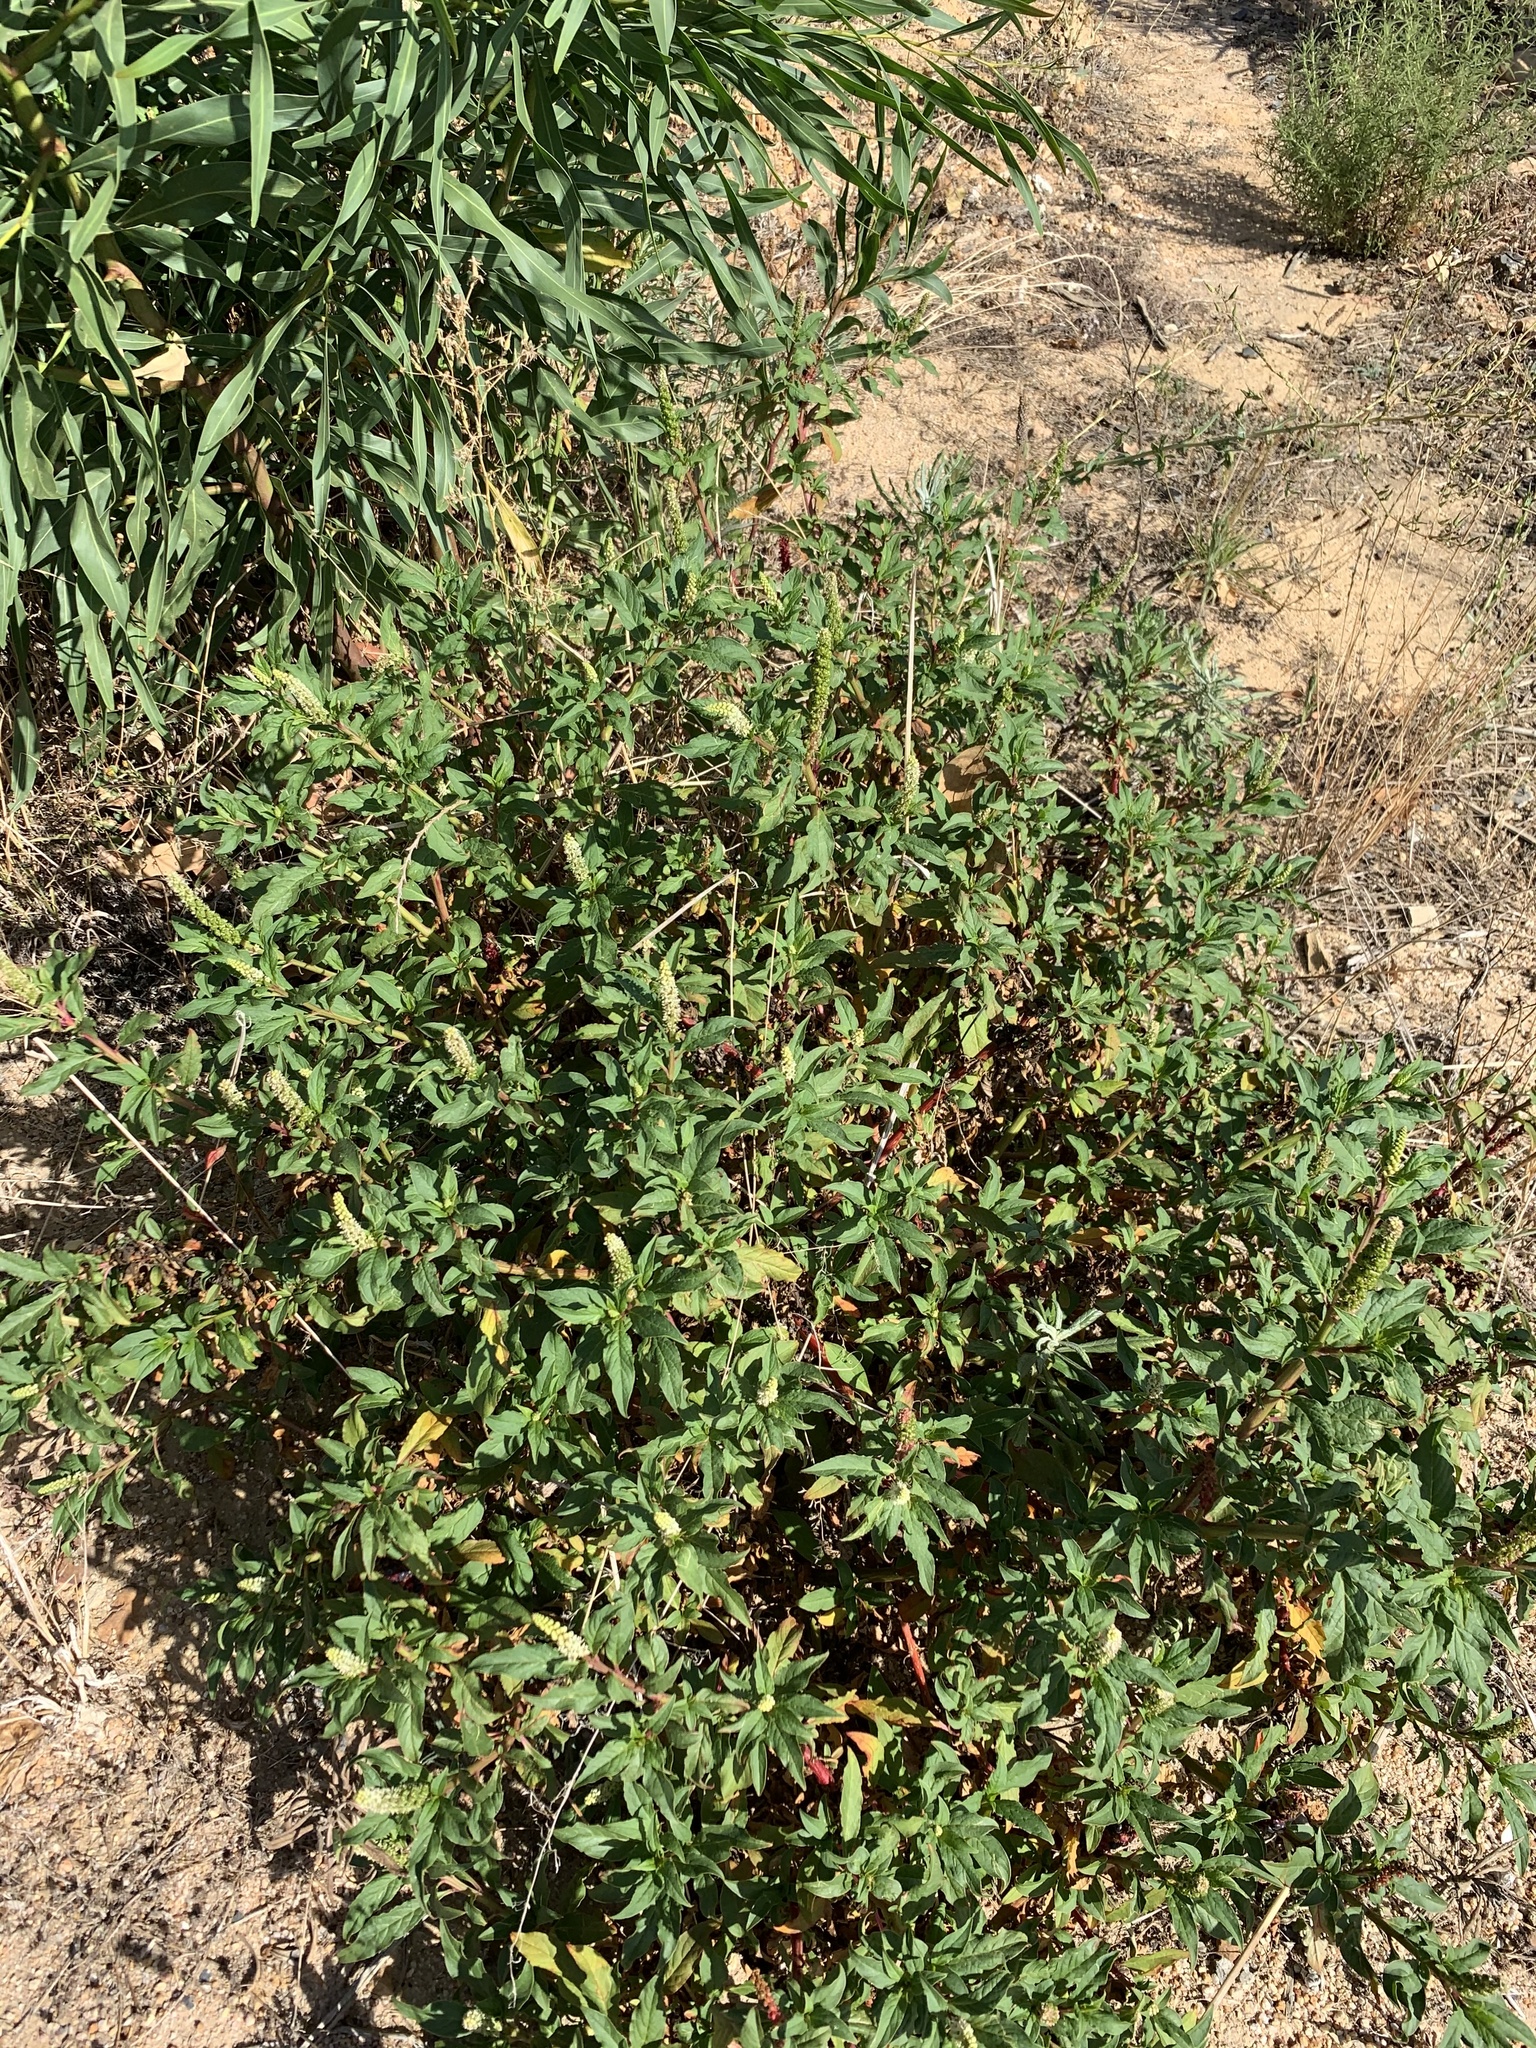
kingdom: Plantae
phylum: Tracheophyta
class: Magnoliopsida
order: Caryophyllales
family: Phytolaccaceae
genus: Phytolacca
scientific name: Phytolacca icosandra
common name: Button pokeweed
